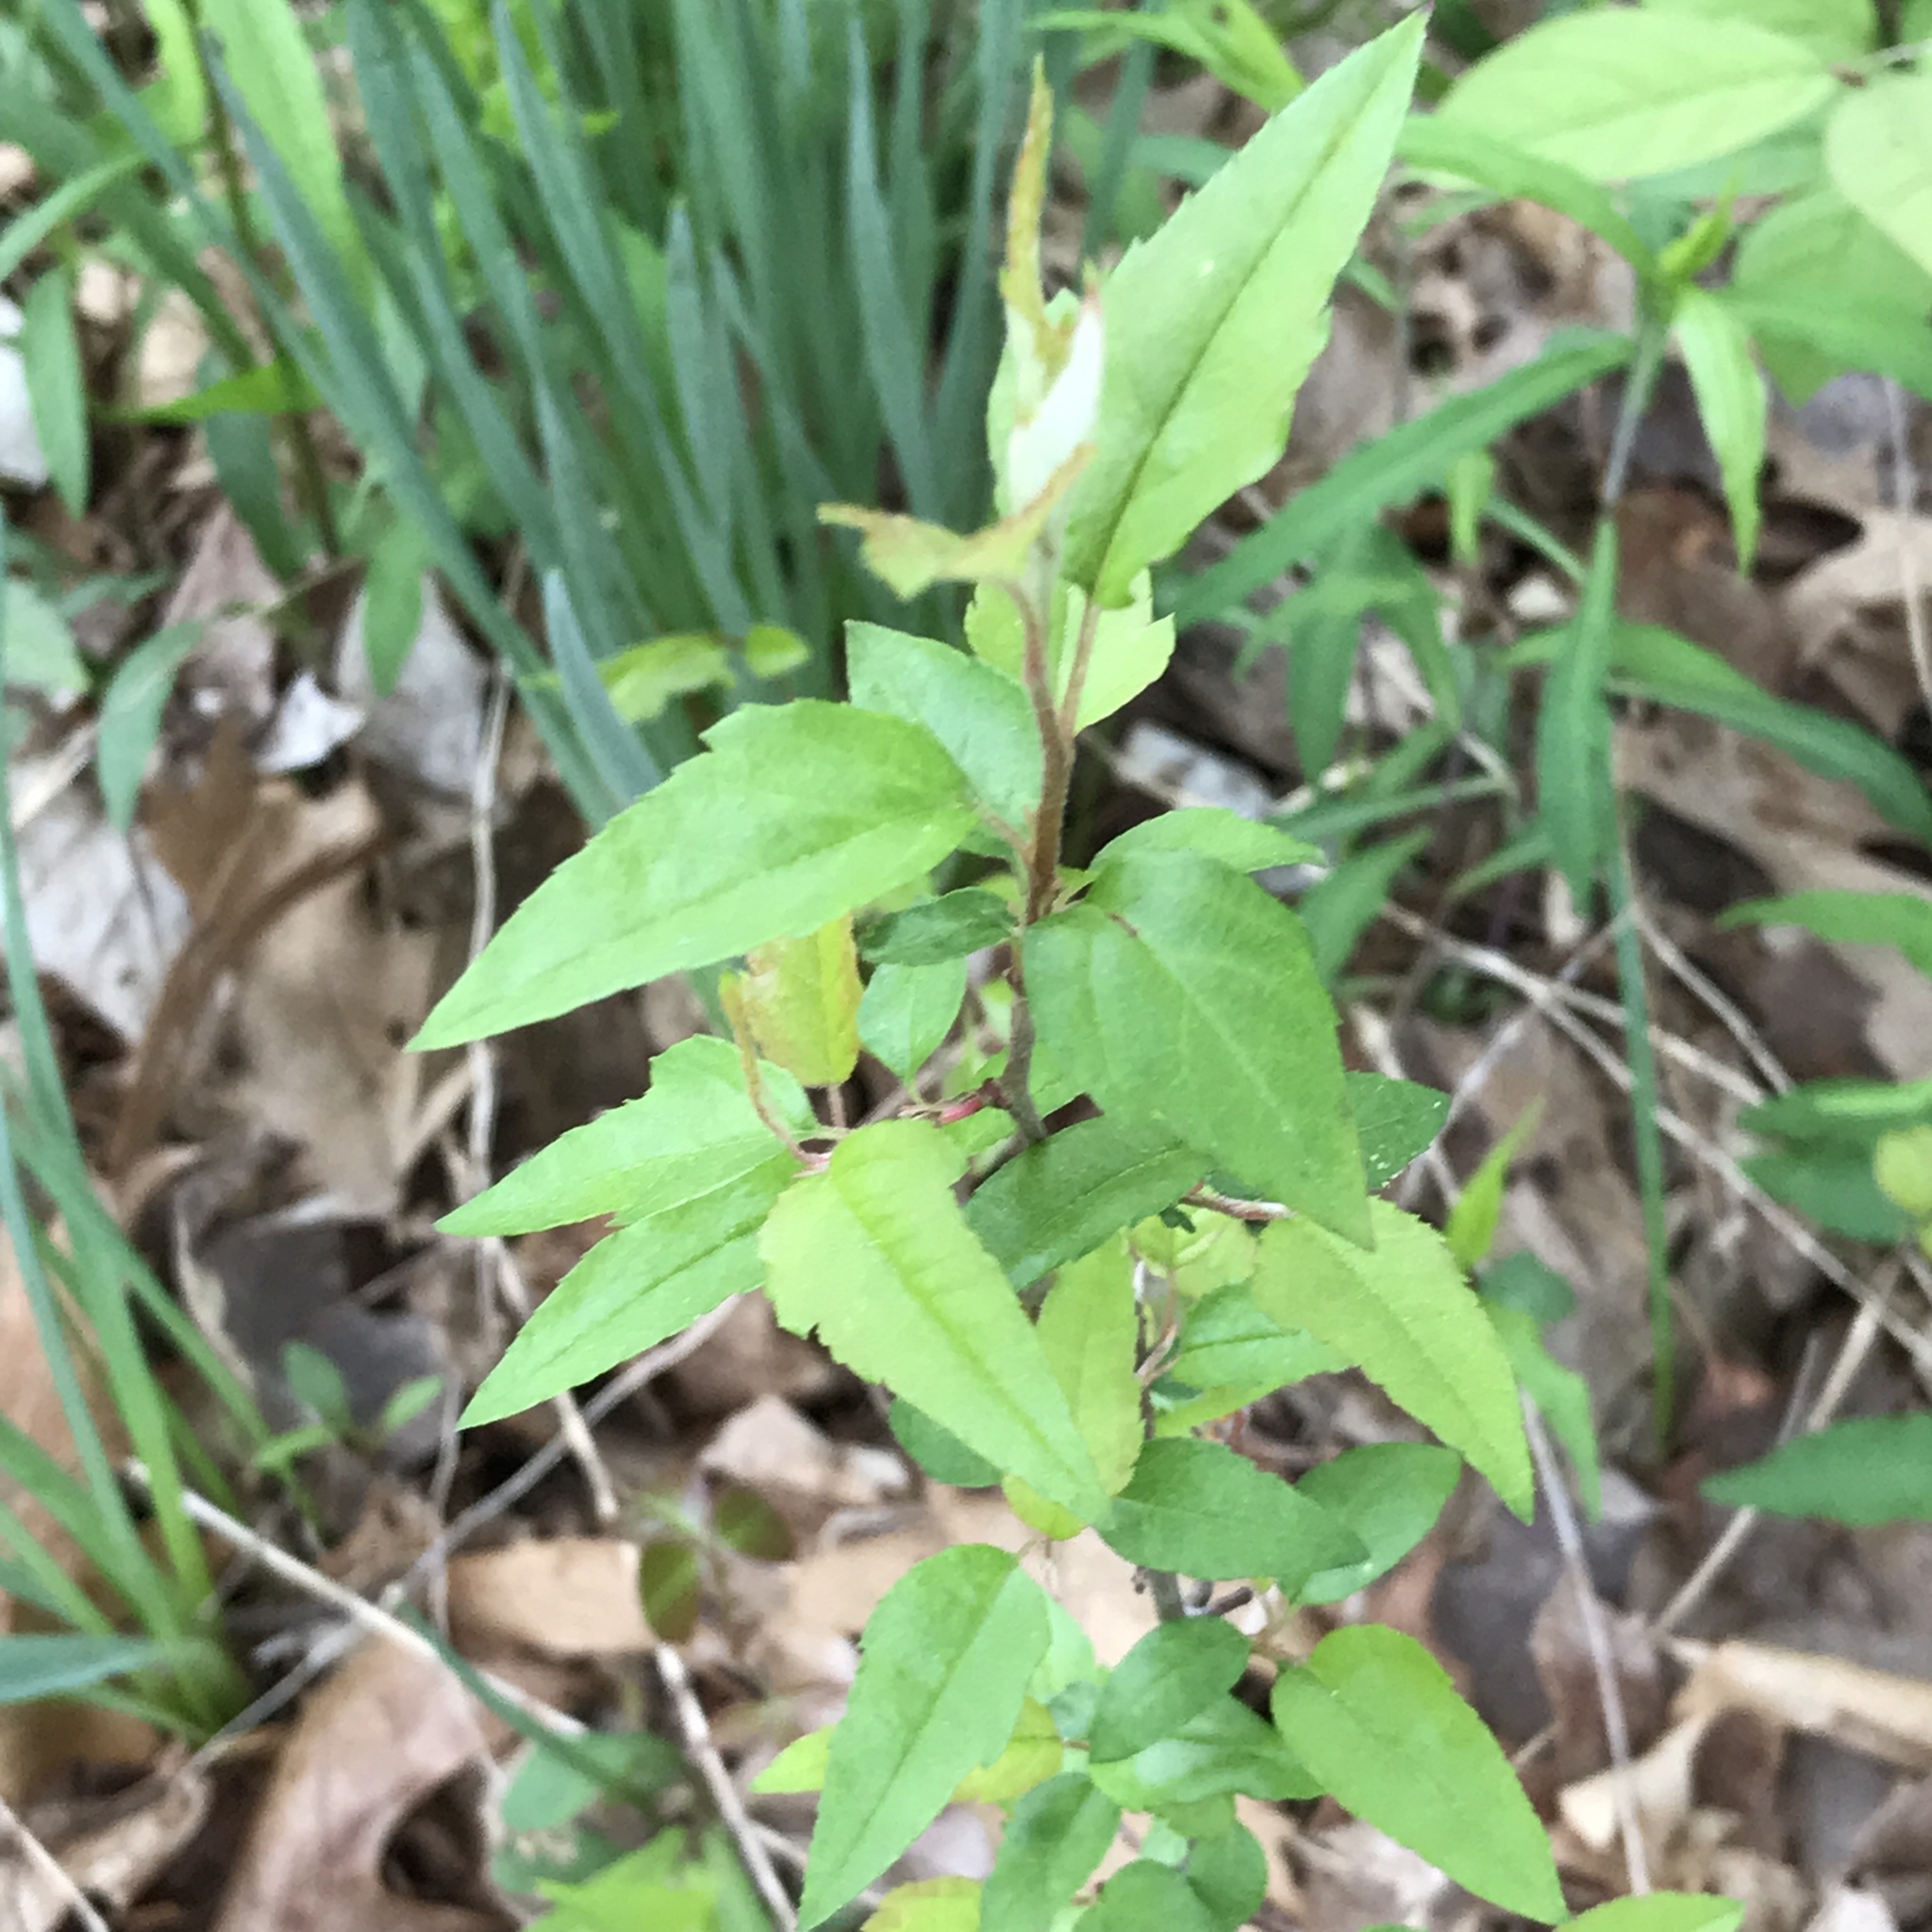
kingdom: Plantae
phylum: Tracheophyta
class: Magnoliopsida
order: Rosales
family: Rosaceae
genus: Malus
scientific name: Malus coronaria
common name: Sweet crab apple
